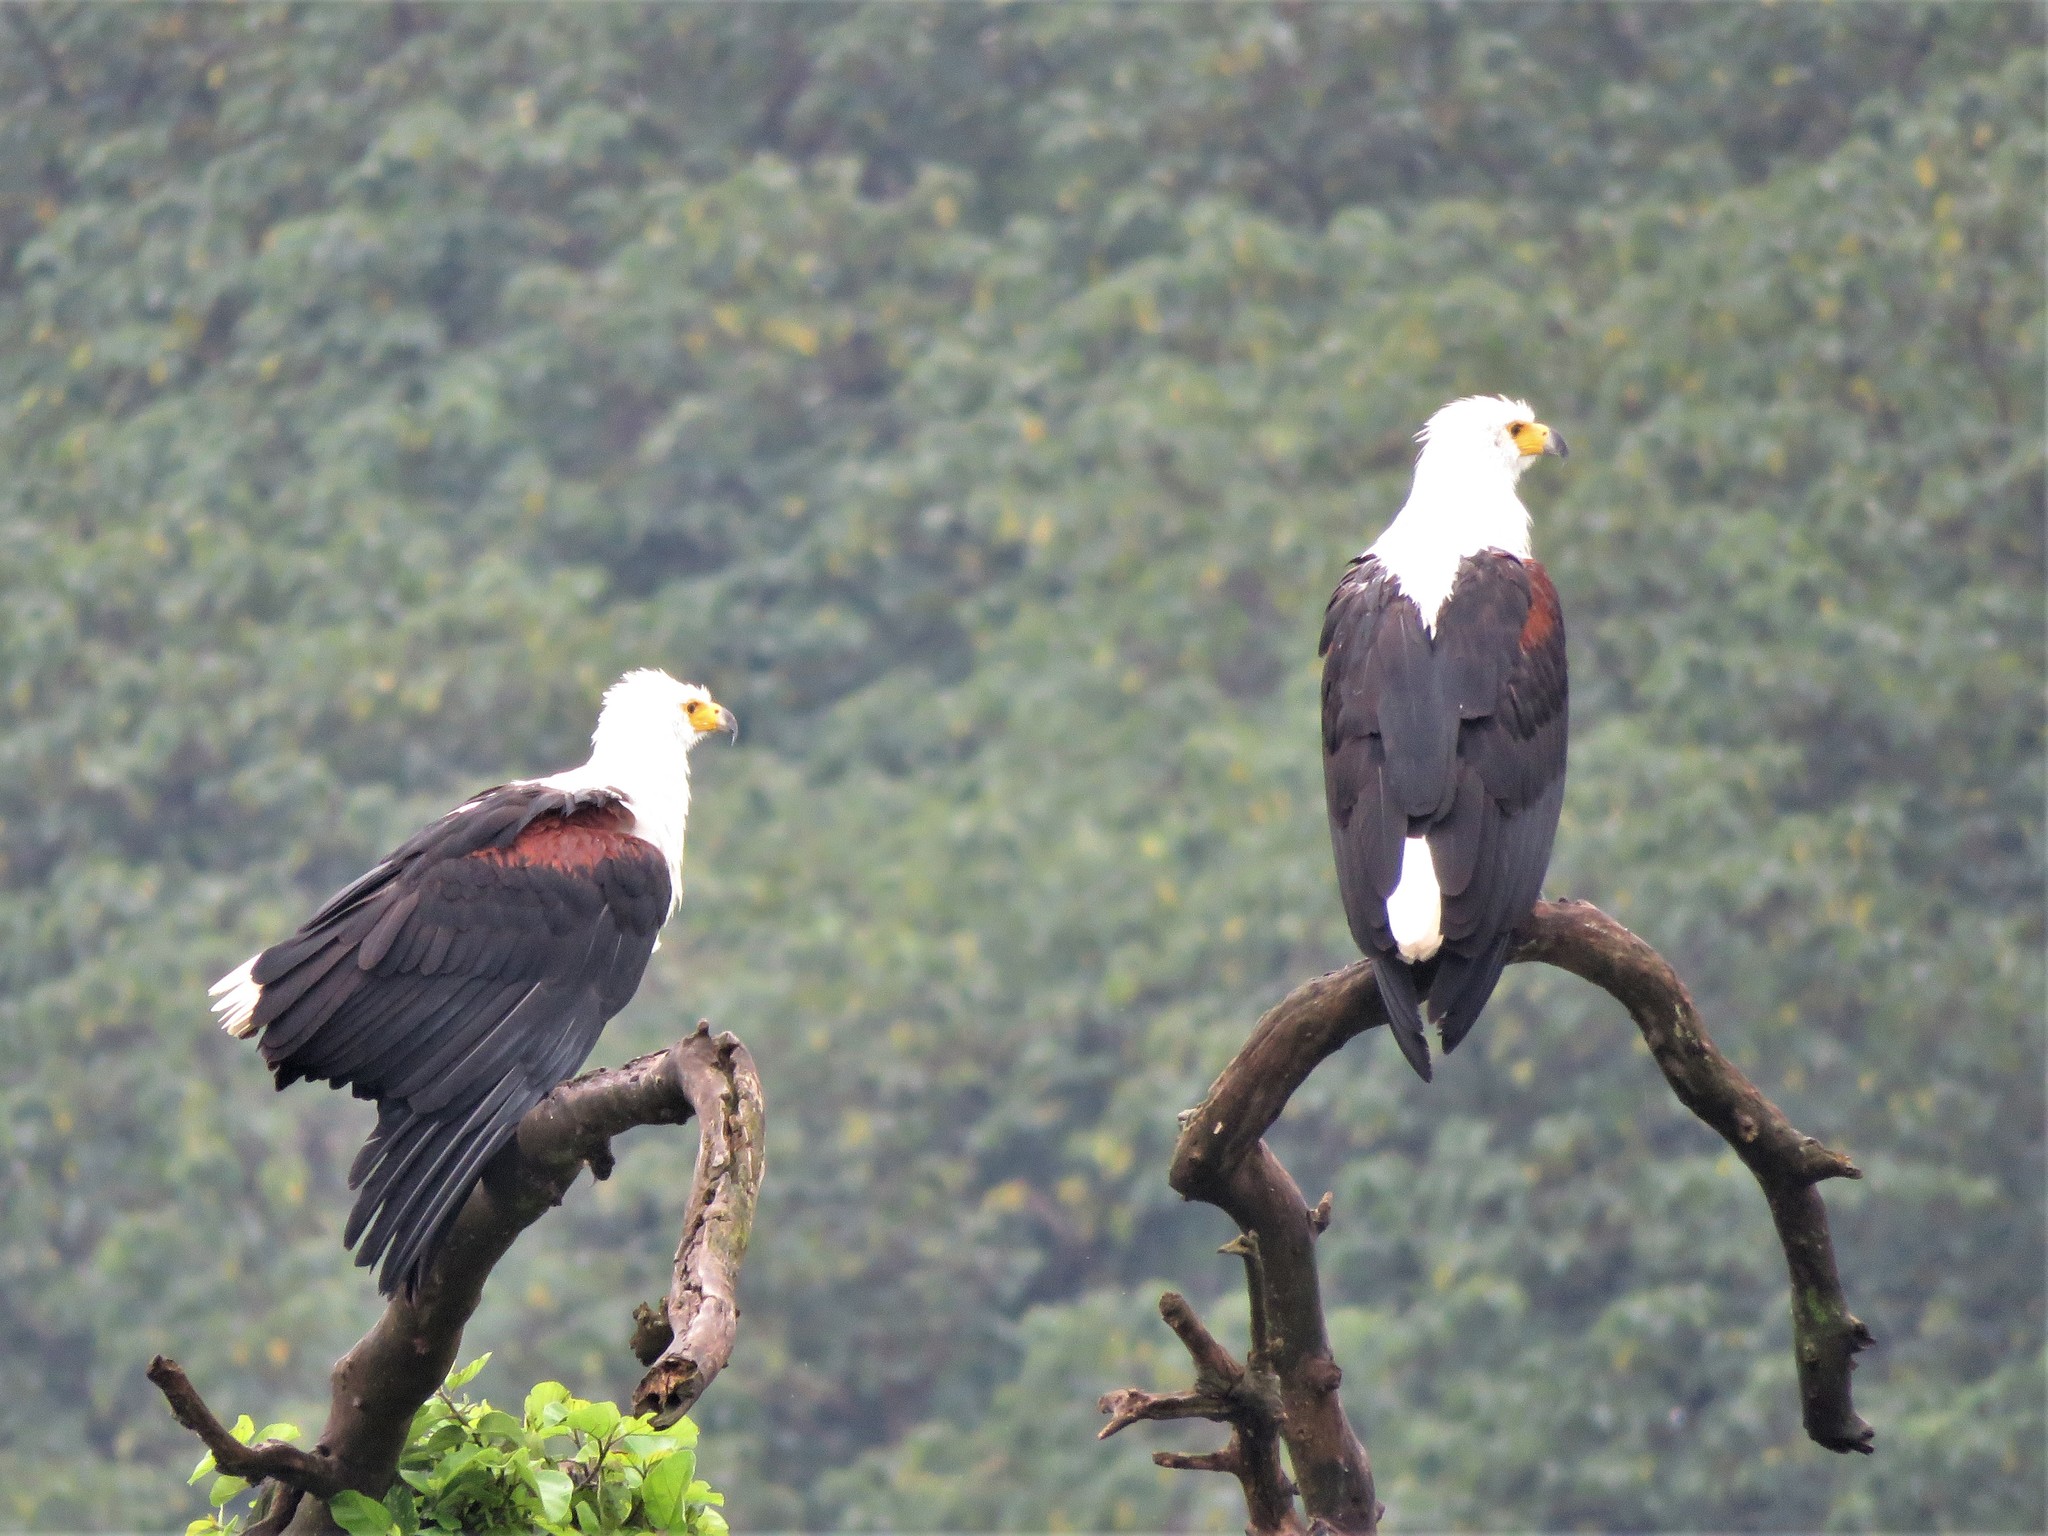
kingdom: Animalia
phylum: Chordata
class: Aves
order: Accipitriformes
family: Accipitridae
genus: Haliaeetus
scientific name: Haliaeetus vocifer
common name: African fish eagle
